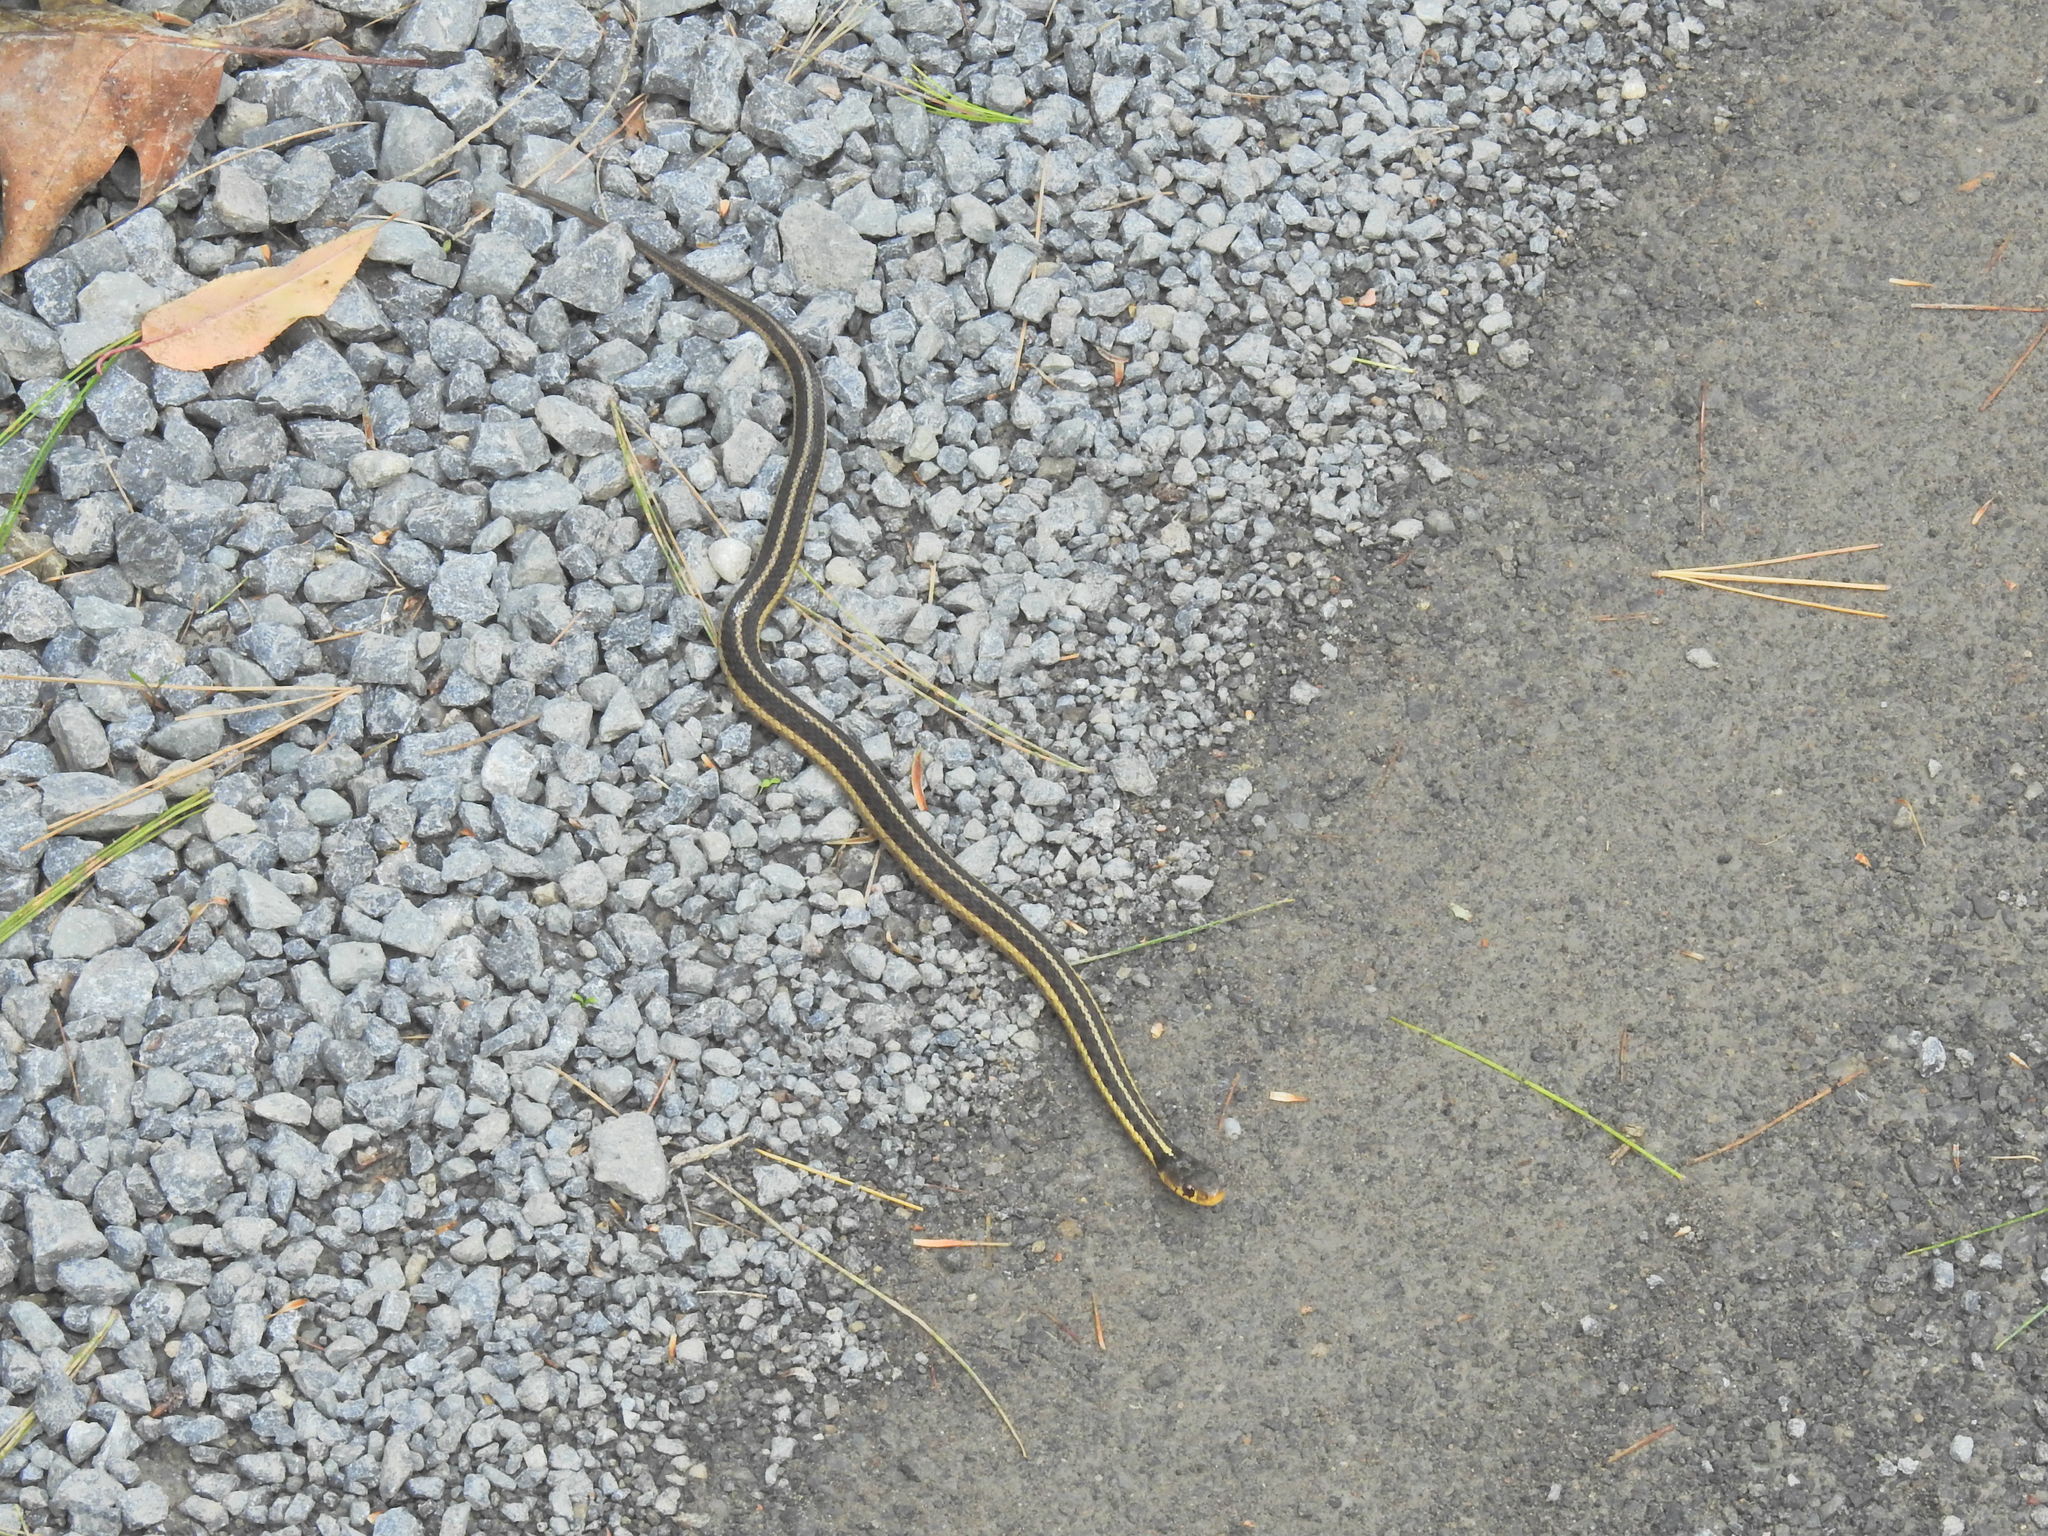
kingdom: Animalia
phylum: Chordata
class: Squamata
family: Colubridae
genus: Thamnophis
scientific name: Thamnophis sirtalis
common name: Common garter snake
